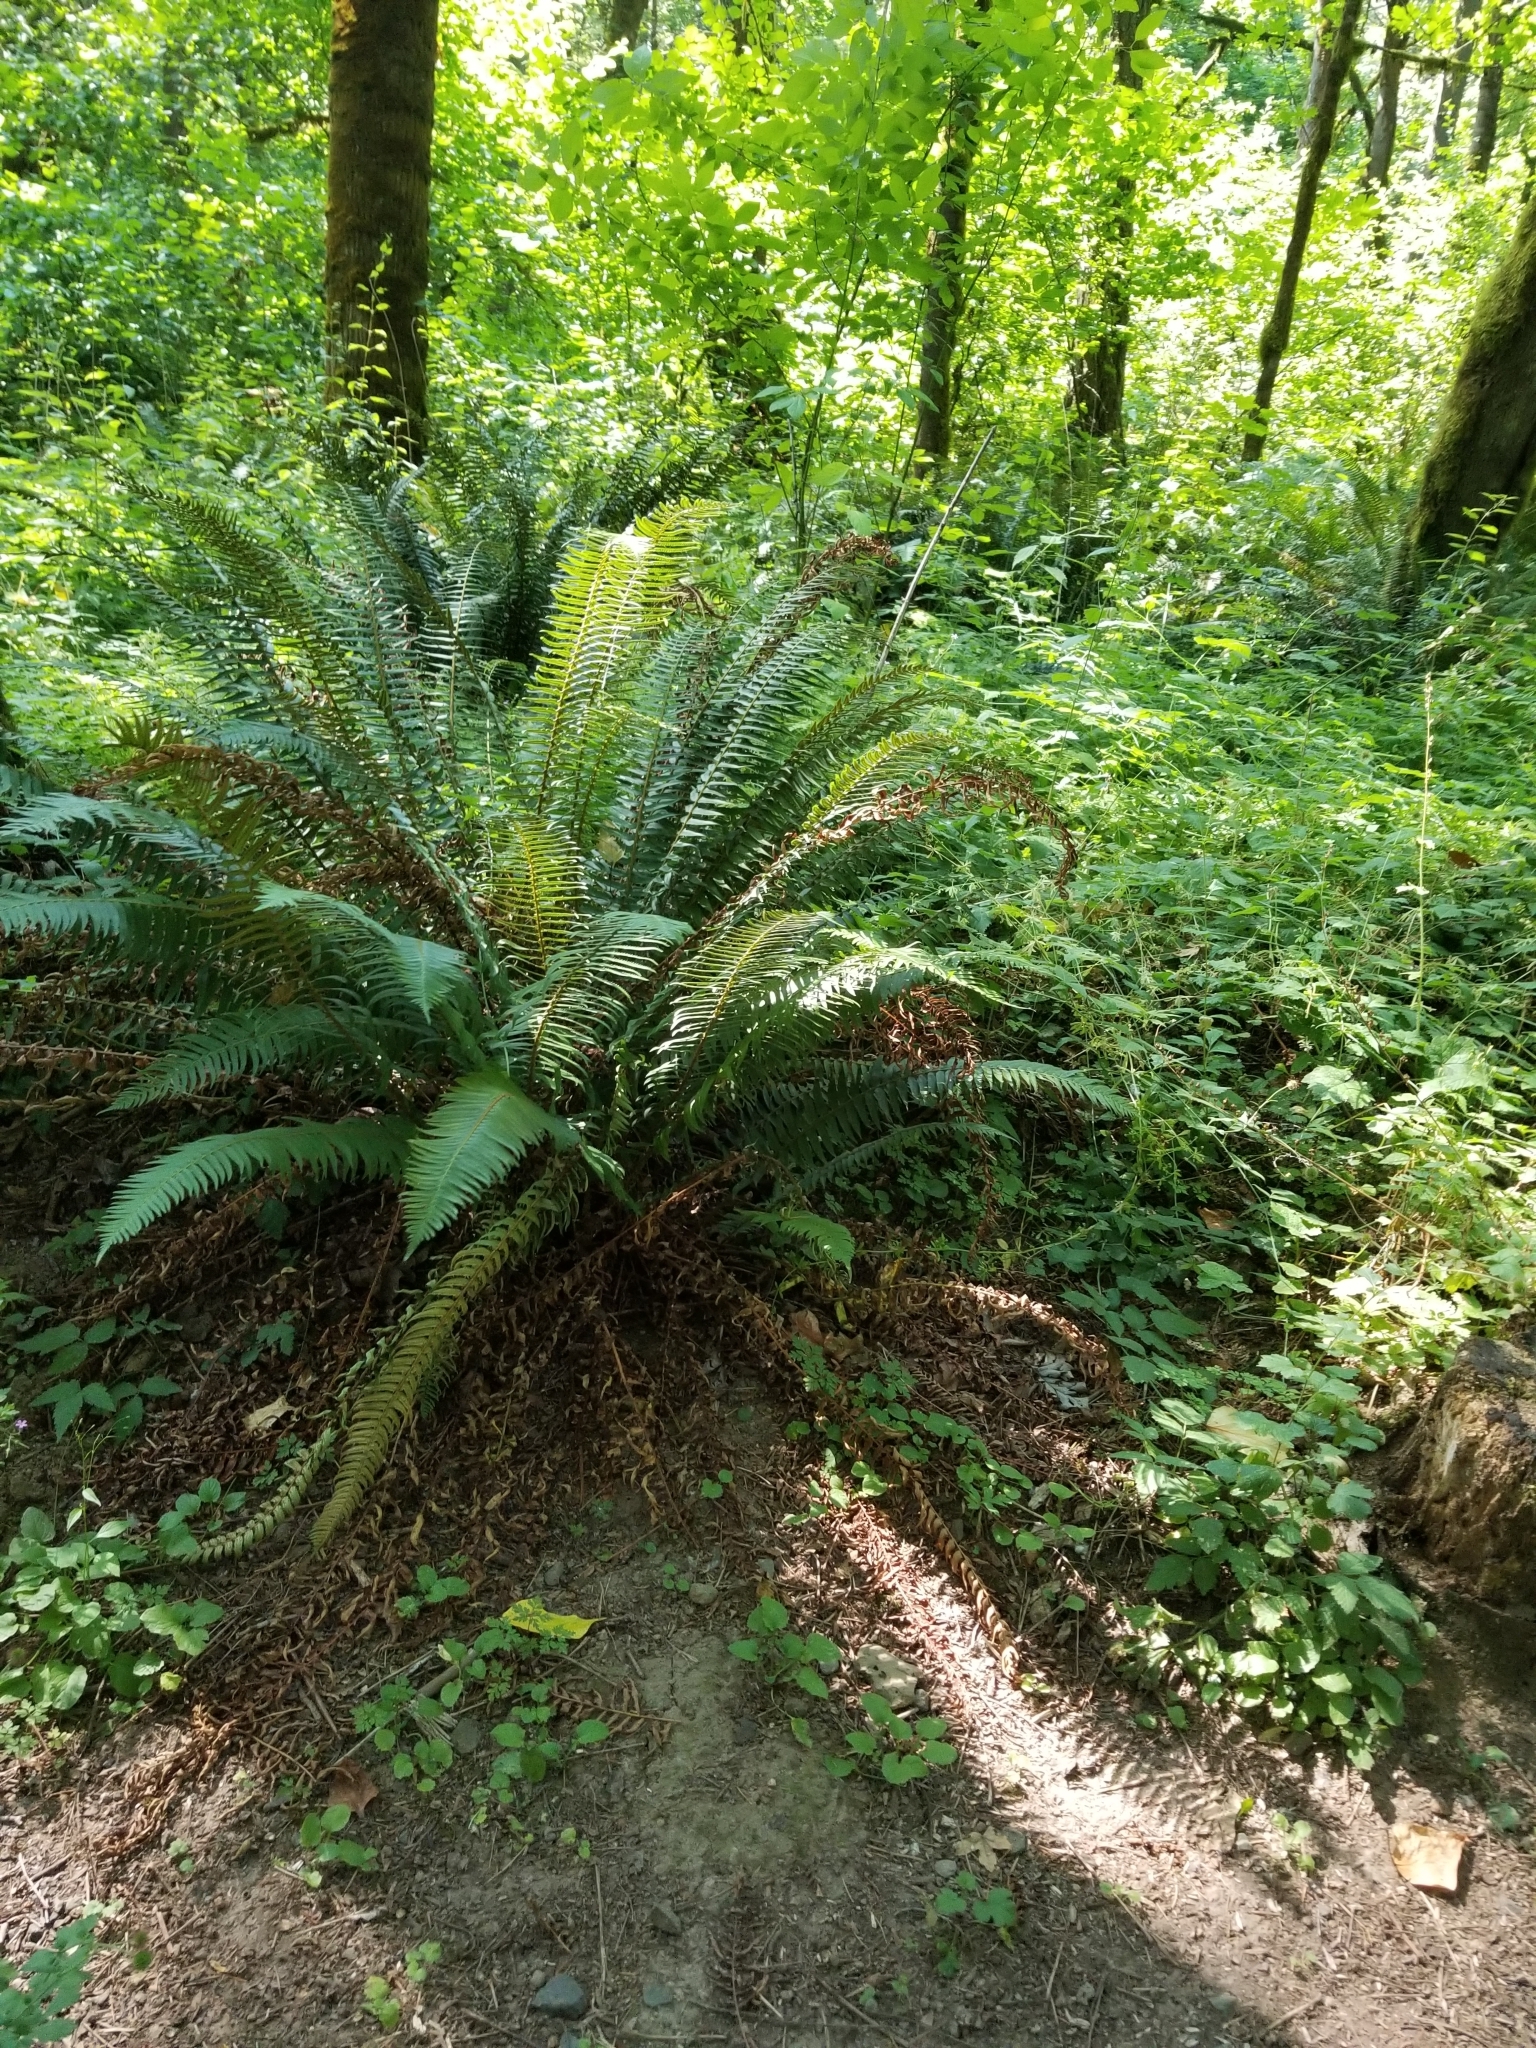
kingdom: Plantae
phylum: Tracheophyta
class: Polypodiopsida
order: Polypodiales
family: Dryopteridaceae
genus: Polystichum
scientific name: Polystichum munitum
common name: Western sword-fern
